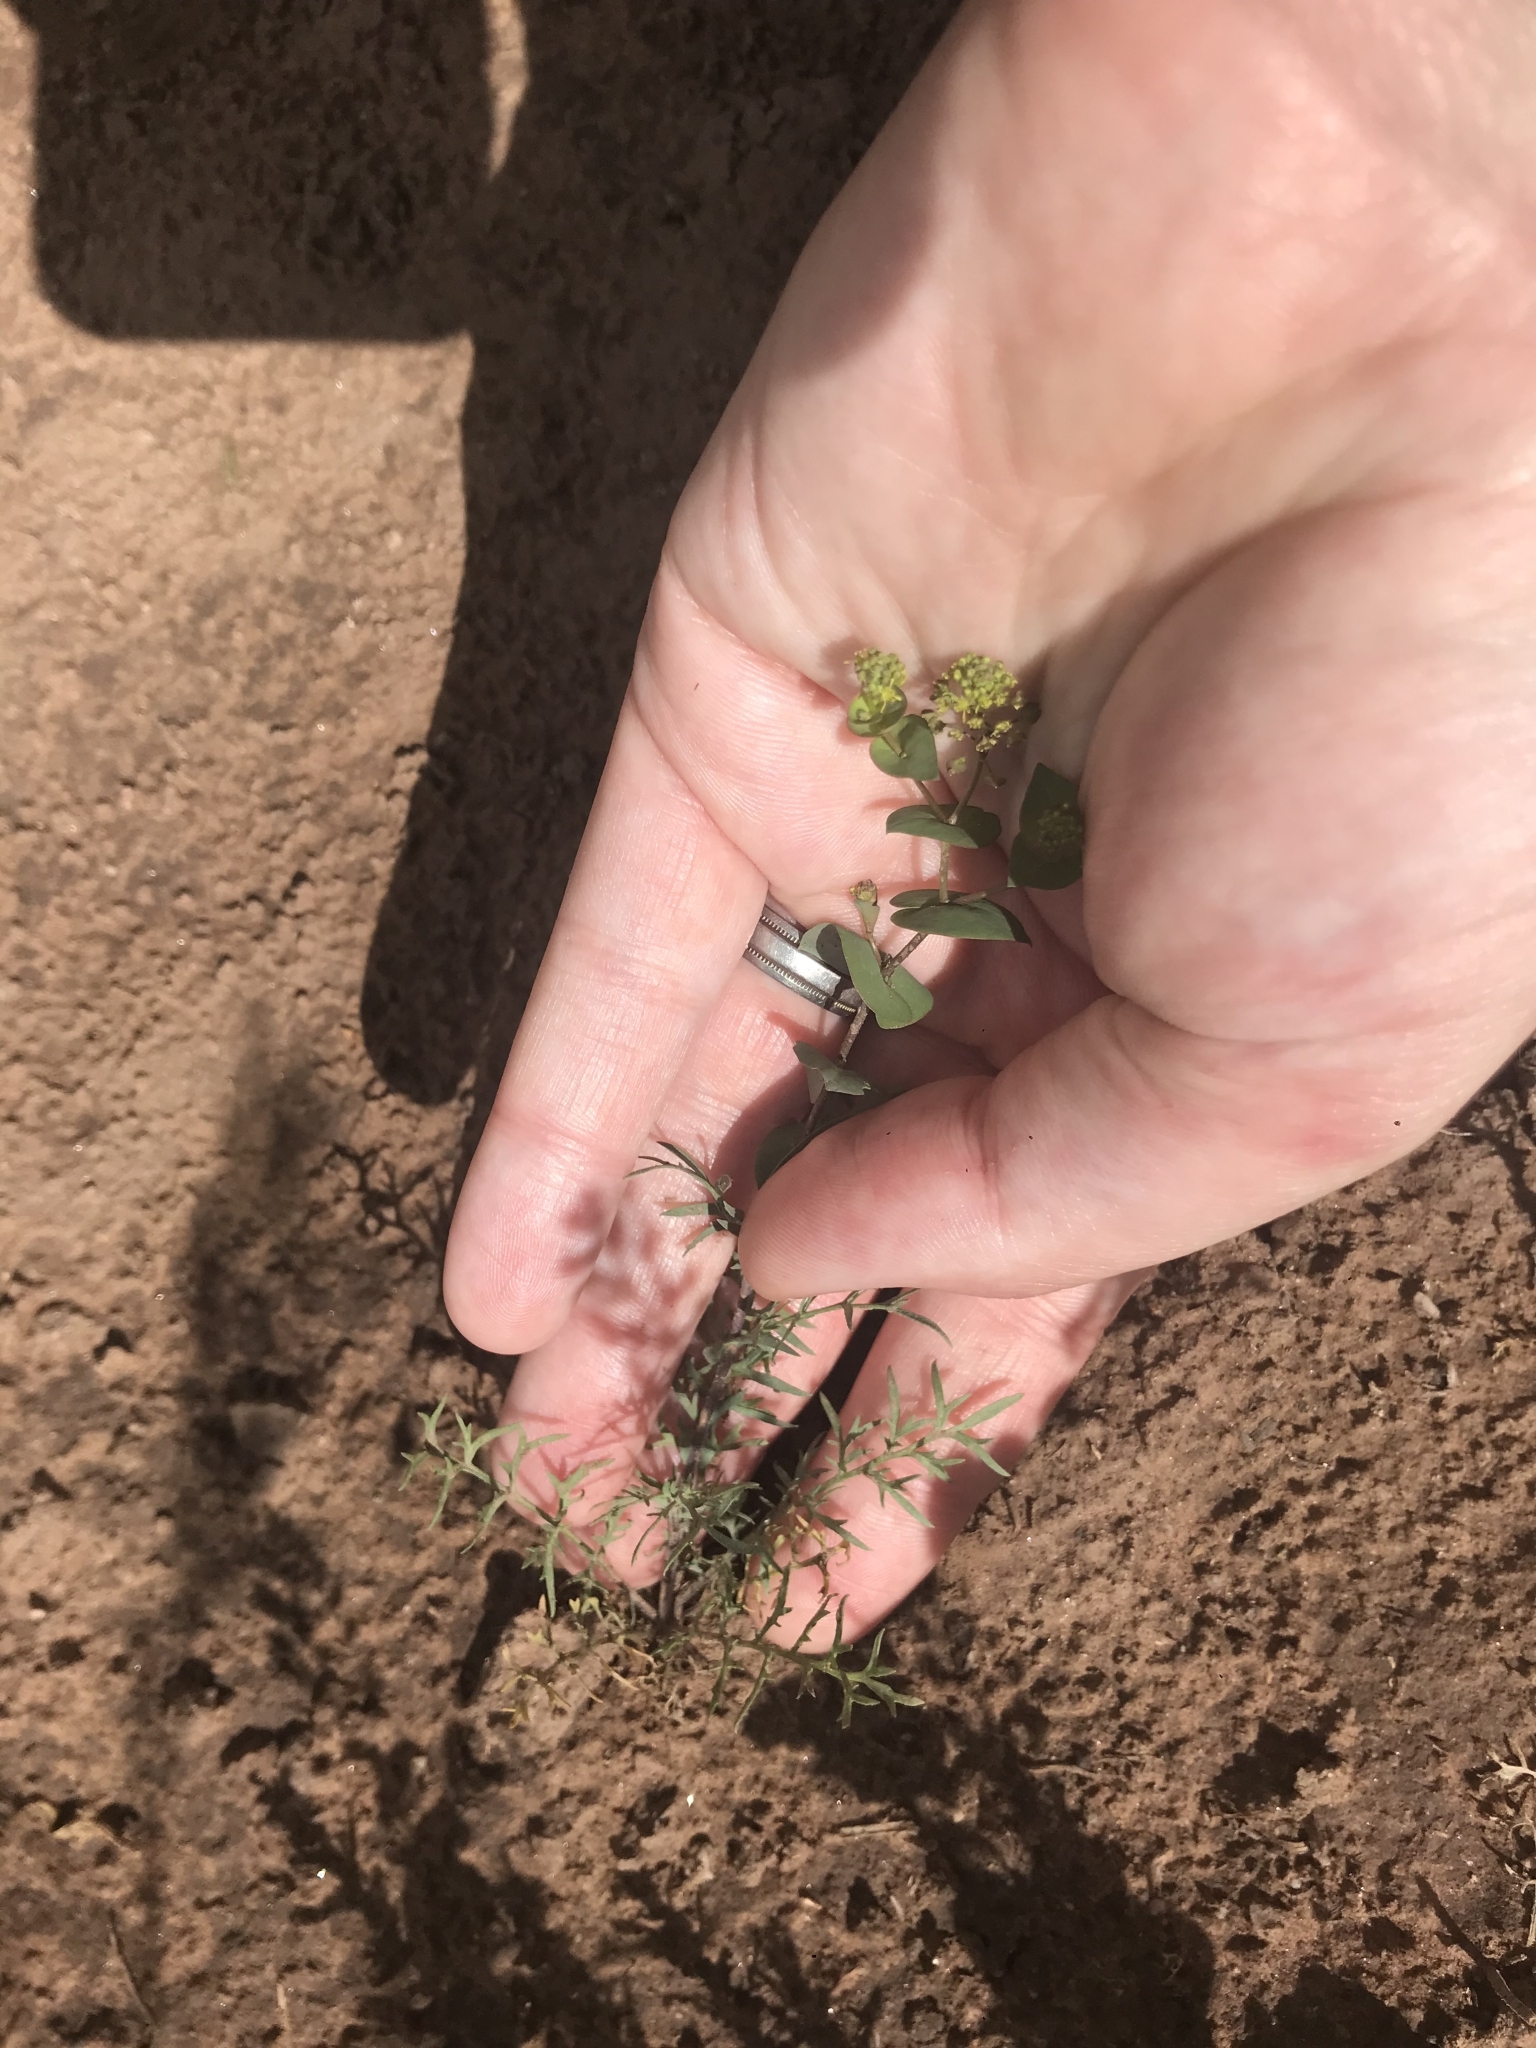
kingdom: Plantae
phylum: Tracheophyta
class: Magnoliopsida
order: Brassicales
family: Brassicaceae
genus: Lepidium
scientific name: Lepidium perfoliatum
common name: Perfoliate pepperwort
